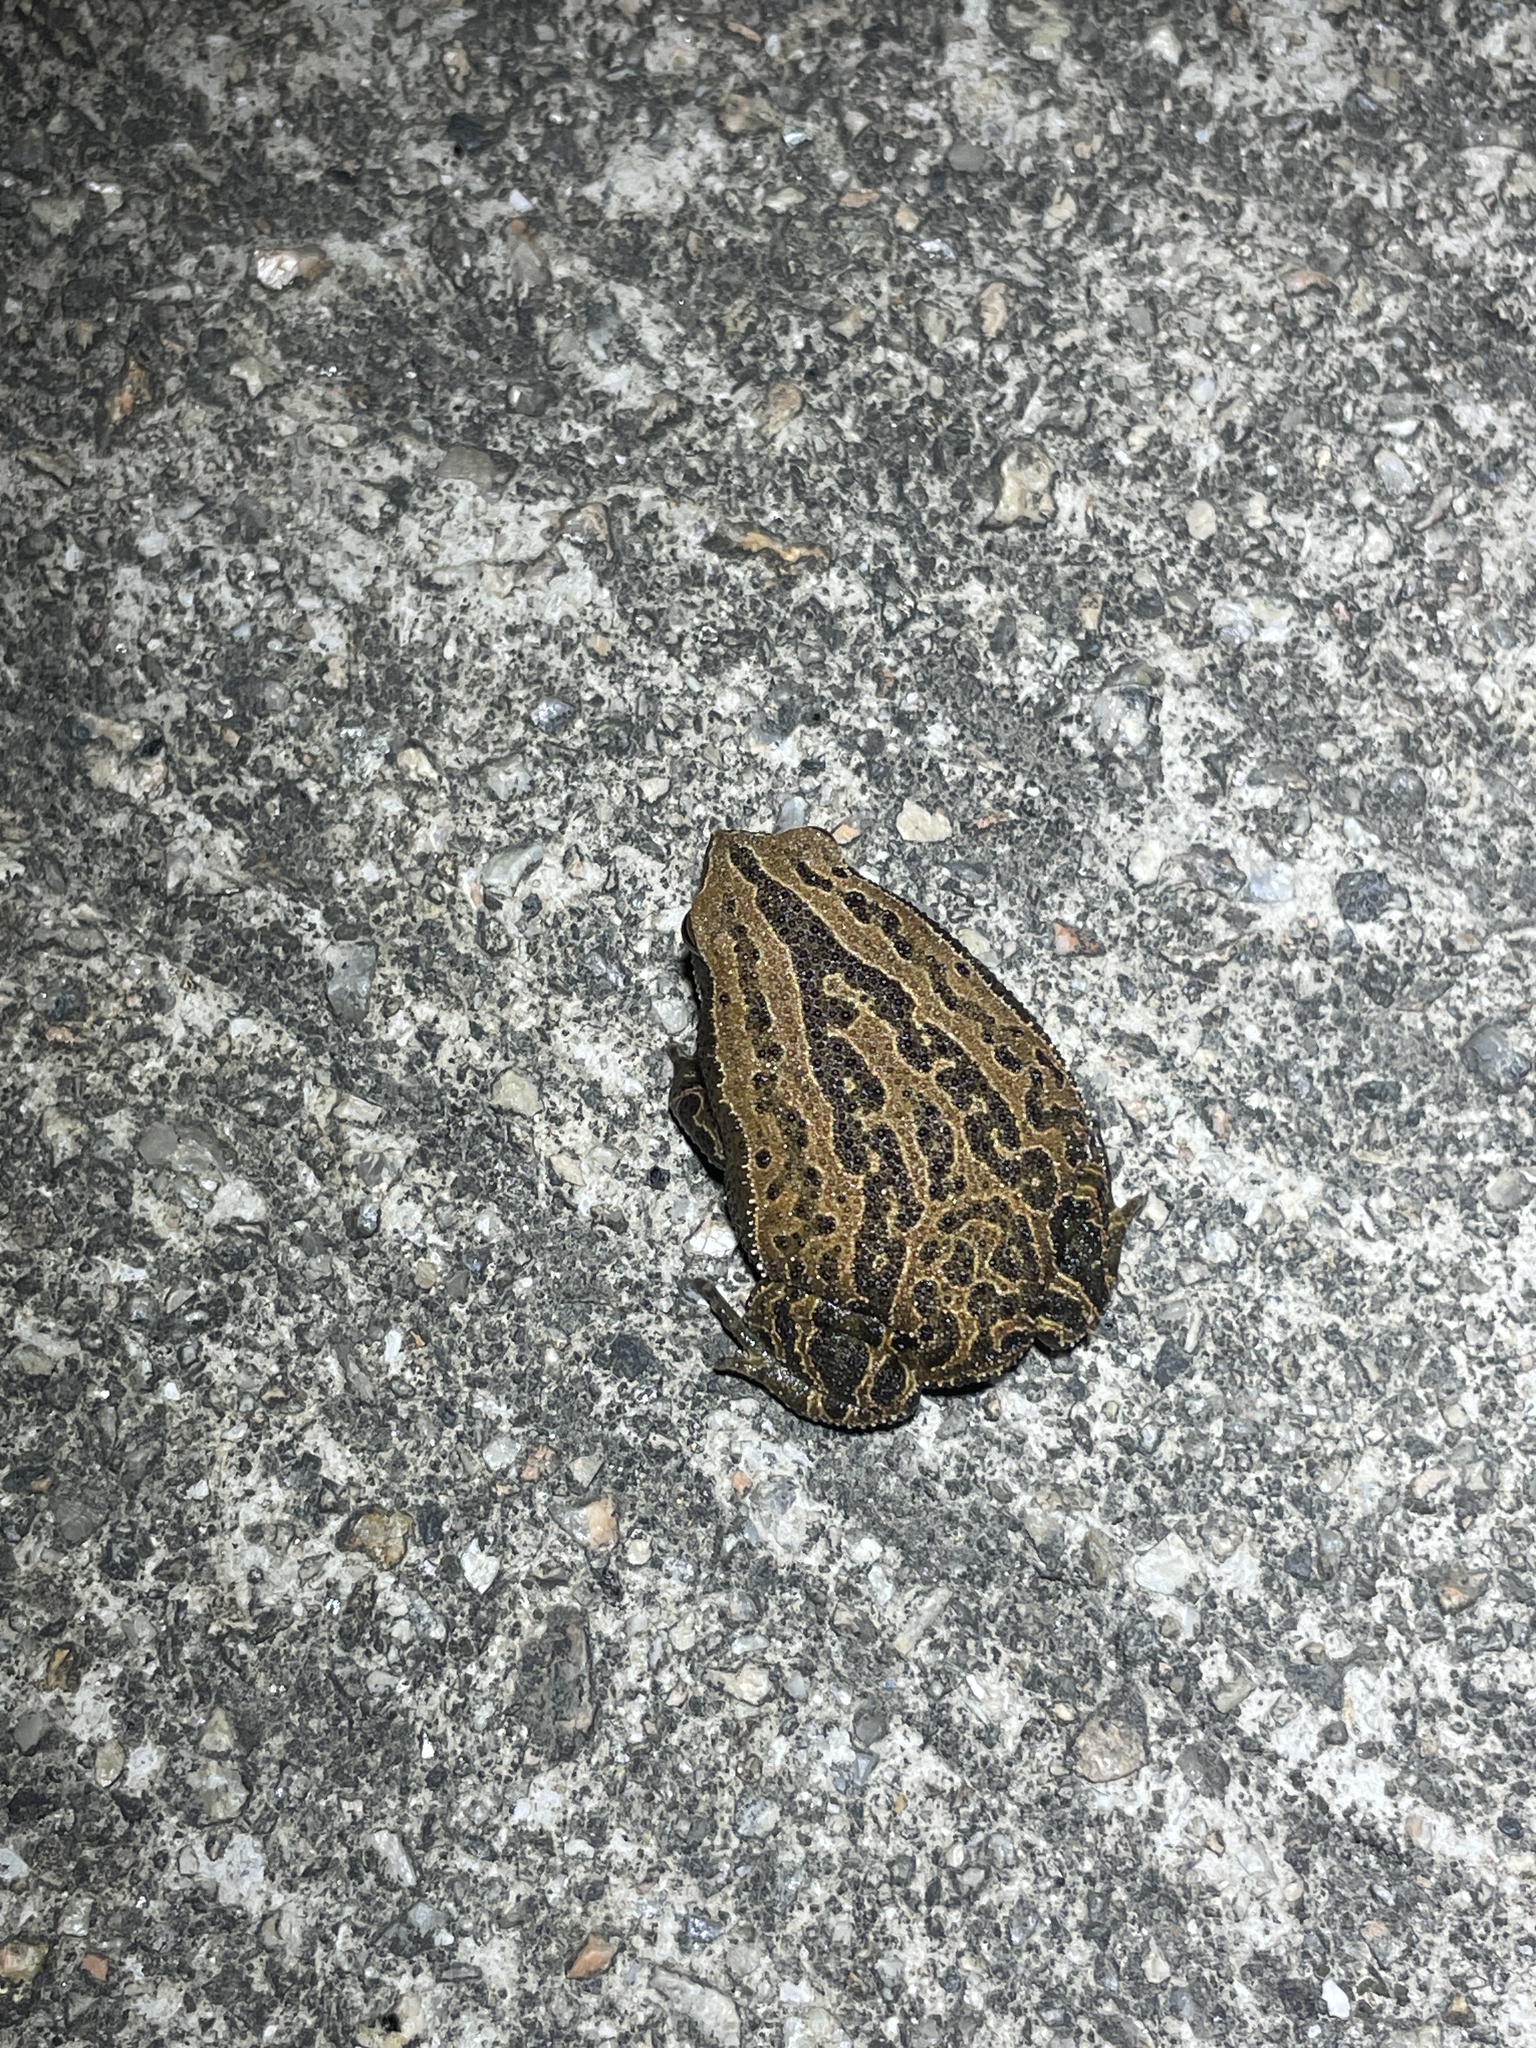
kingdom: Animalia
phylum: Chordata
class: Amphibia
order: Anura
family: Microhylidae
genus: Kalophrynus
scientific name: Kalophrynus interlineatus
